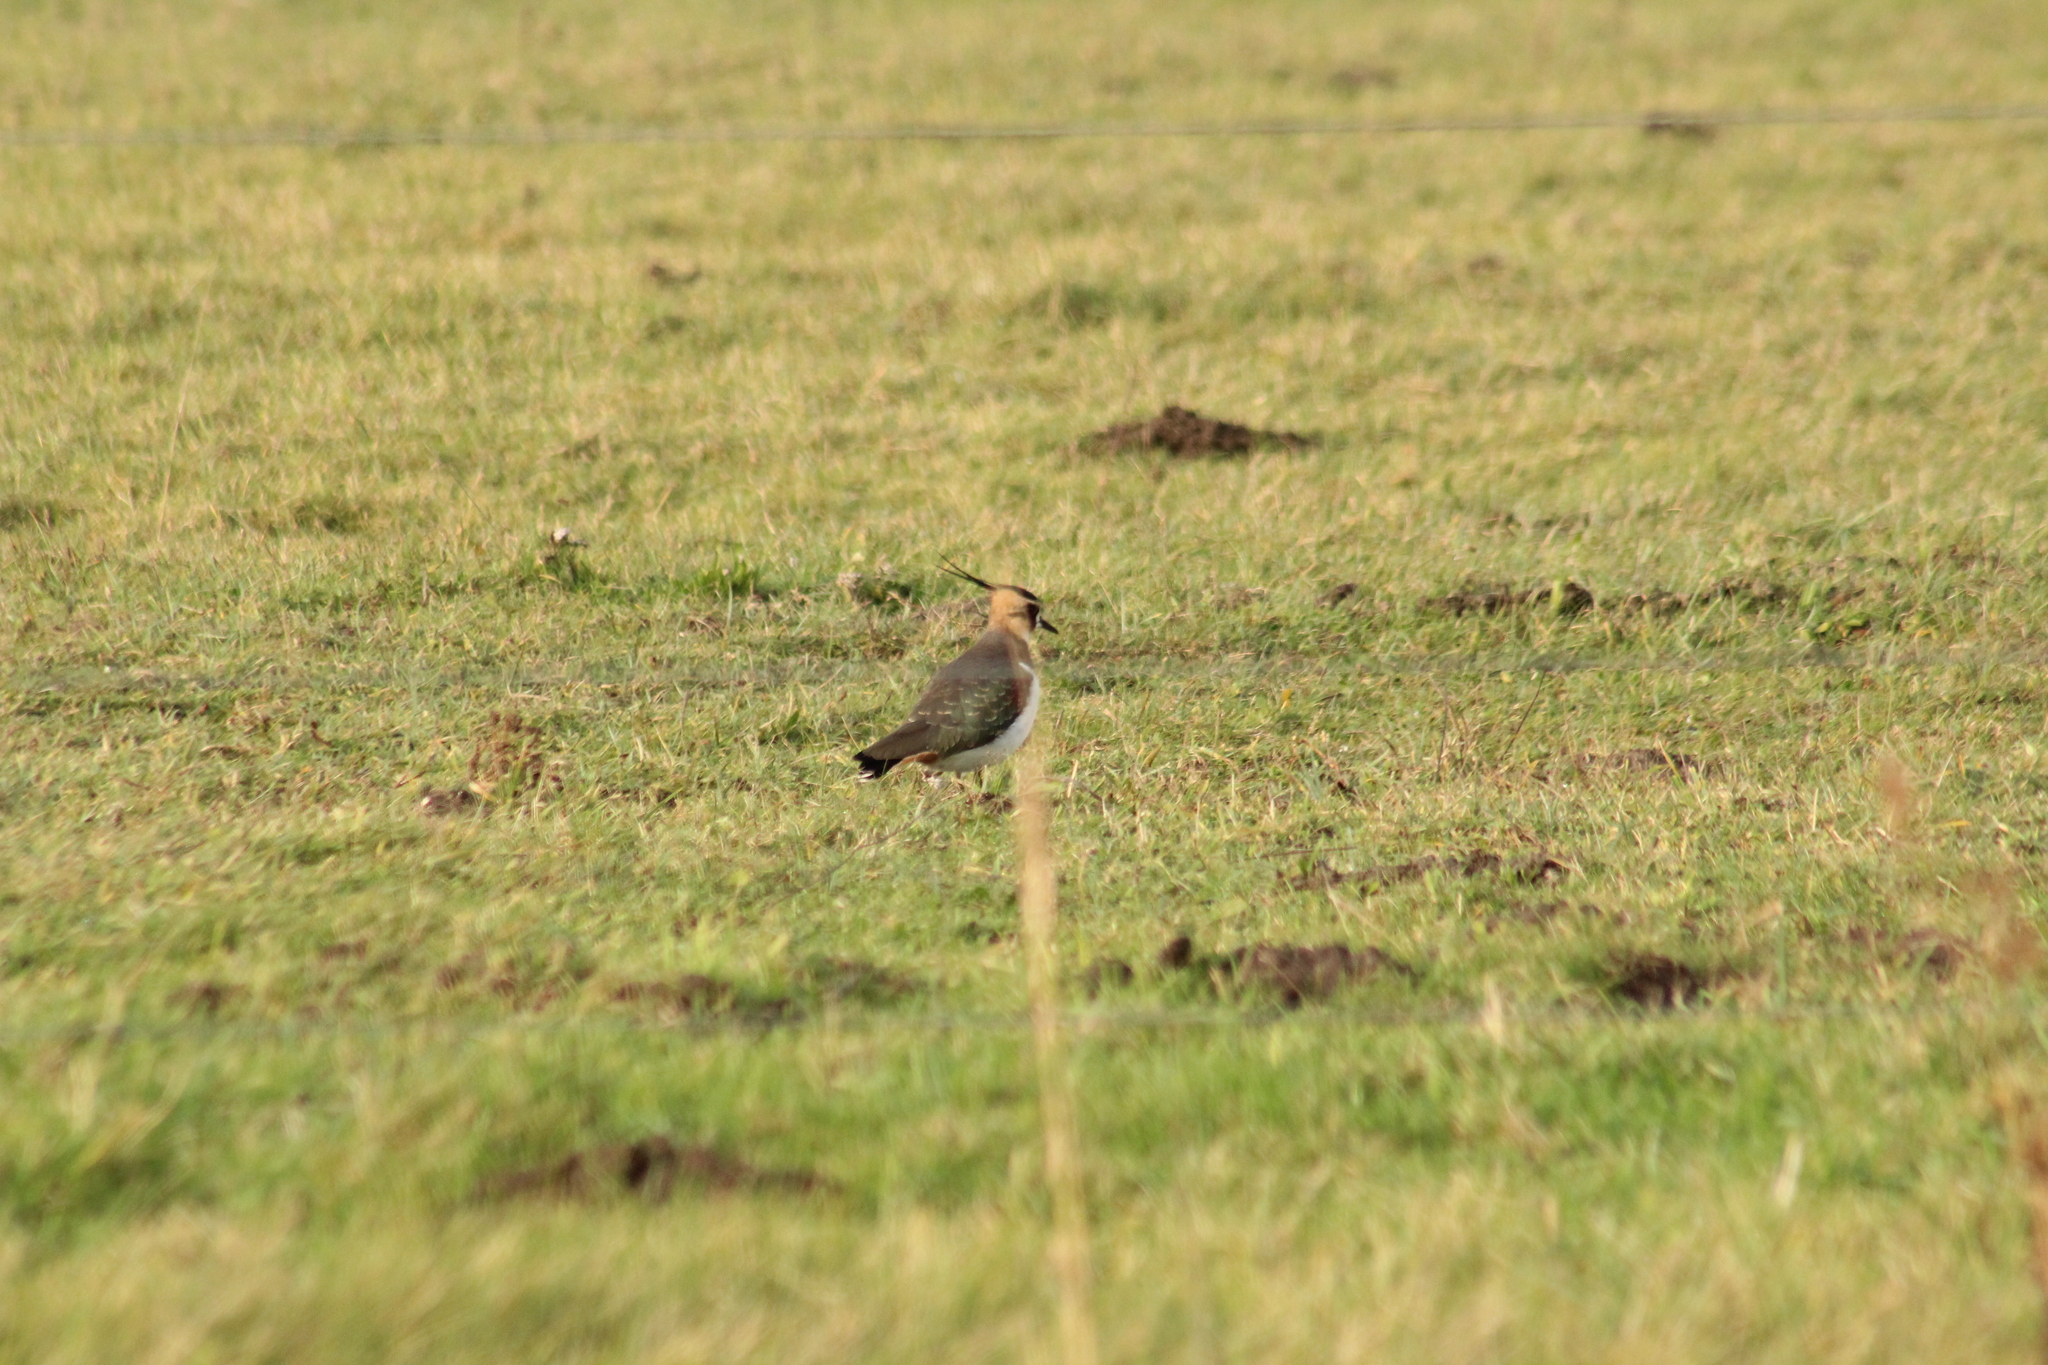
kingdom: Animalia
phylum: Chordata
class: Aves
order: Charadriiformes
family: Charadriidae
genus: Vanellus
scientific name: Vanellus vanellus
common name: Northern lapwing
